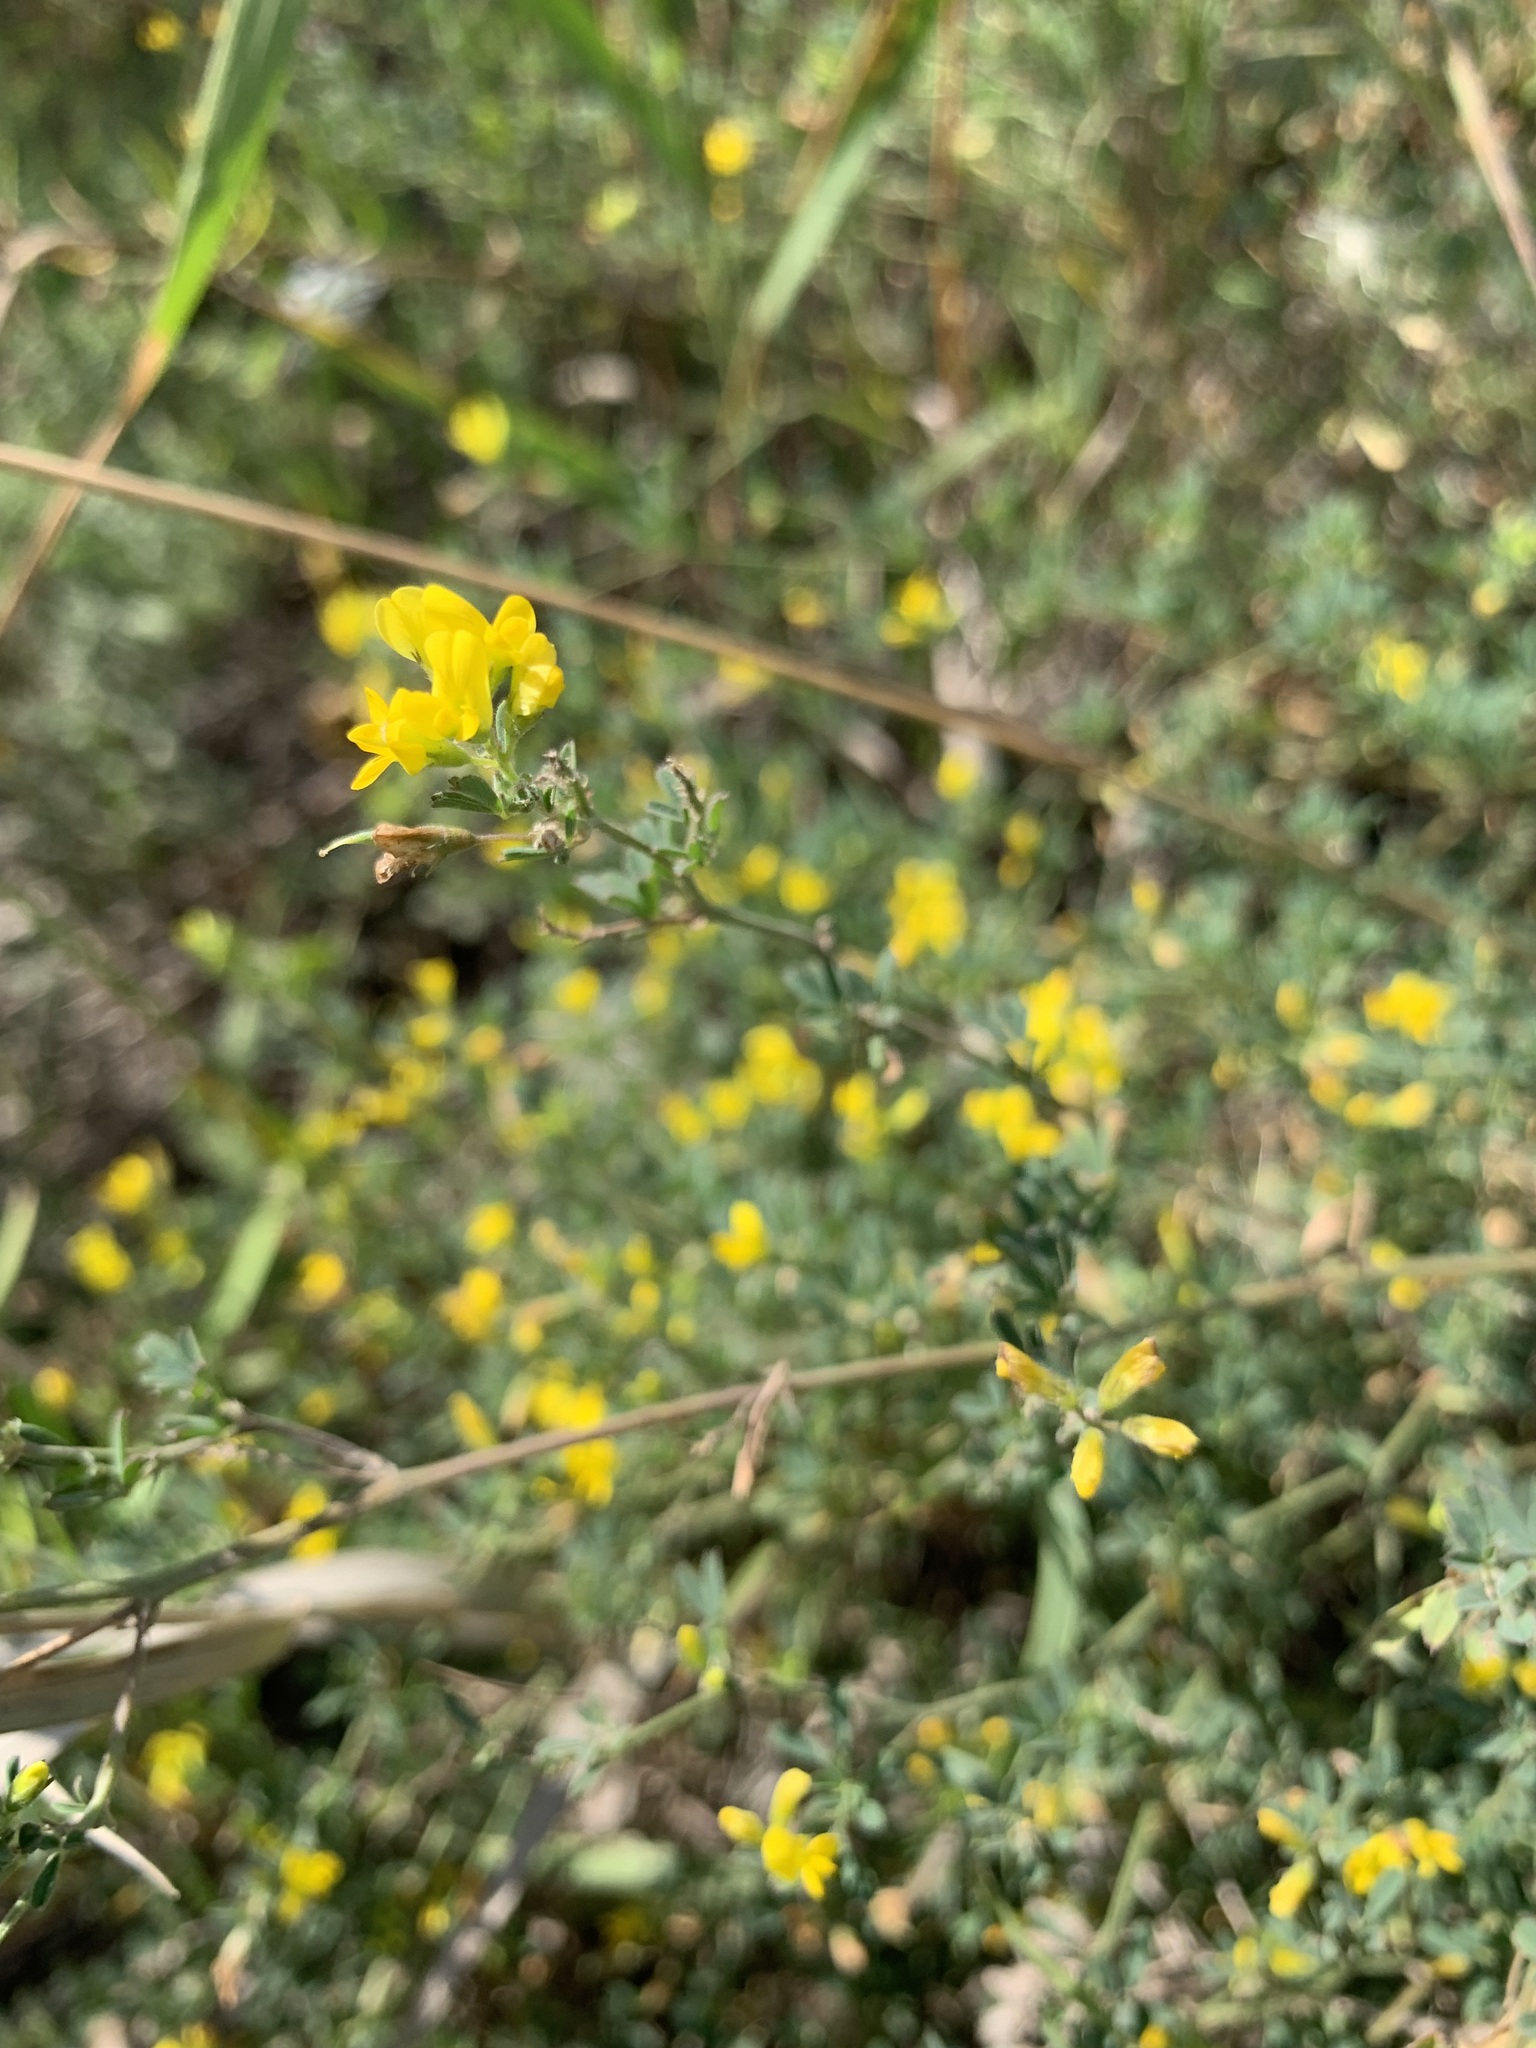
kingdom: Plantae
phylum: Tracheophyta
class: Magnoliopsida
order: Fabales
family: Fabaceae
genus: Medicago
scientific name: Medicago falcata
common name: Sickle medick
